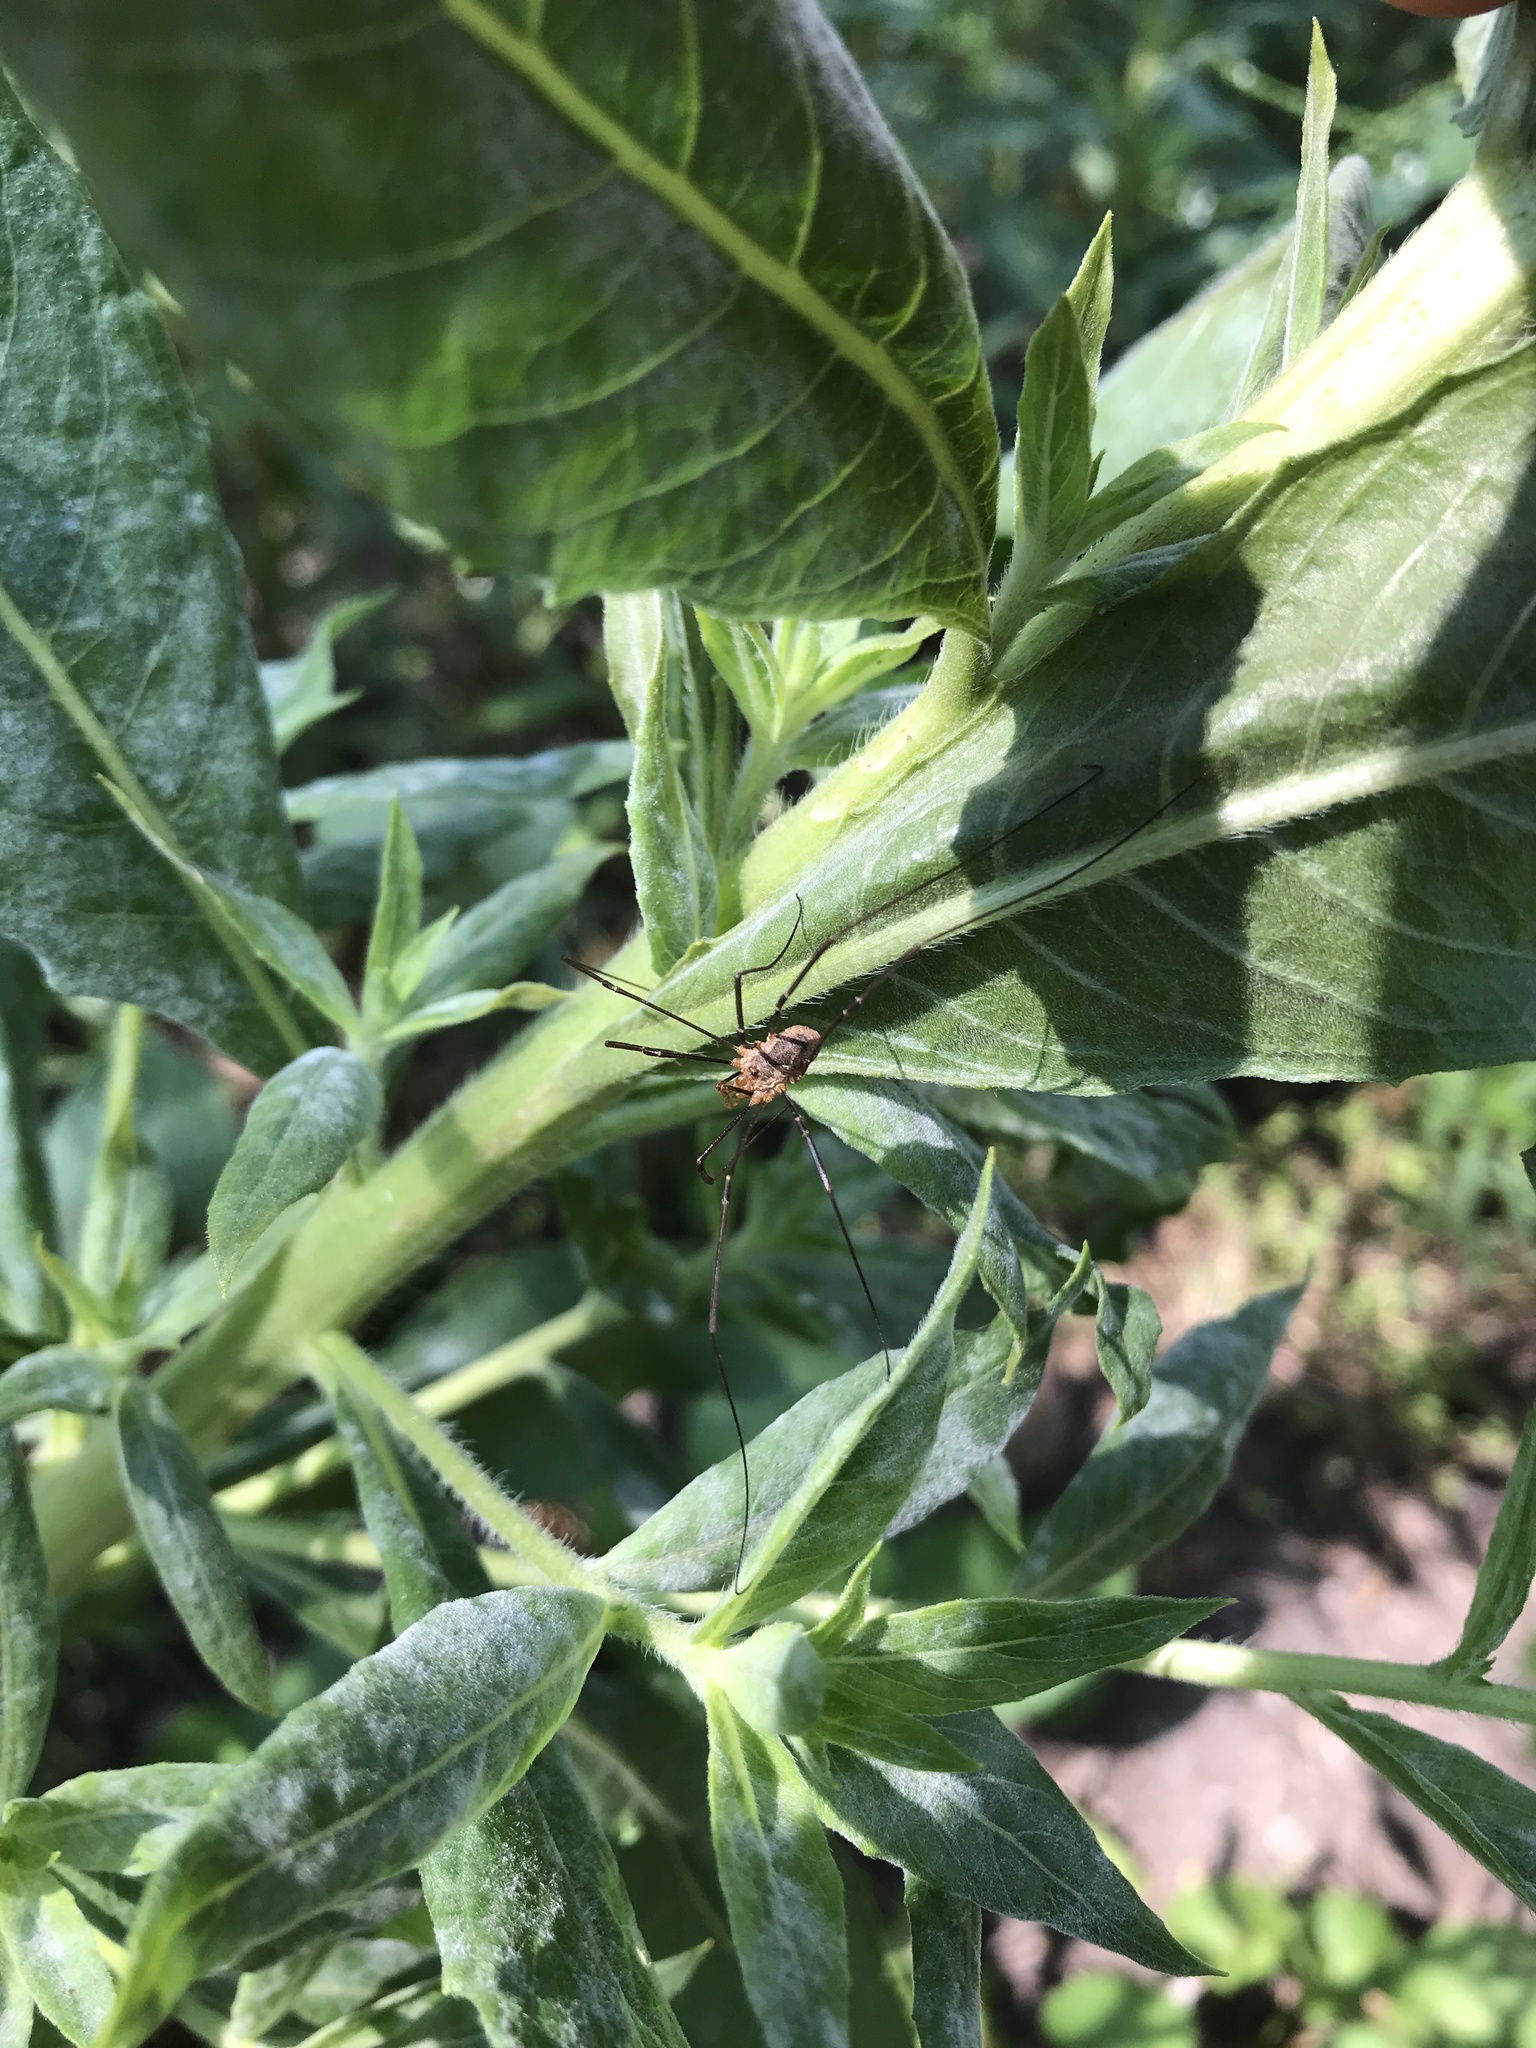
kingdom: Animalia
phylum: Arthropoda
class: Arachnida
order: Opiliones
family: Phalangiidae
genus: Phalangium
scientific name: Phalangium opilio
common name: Daddy longleg
